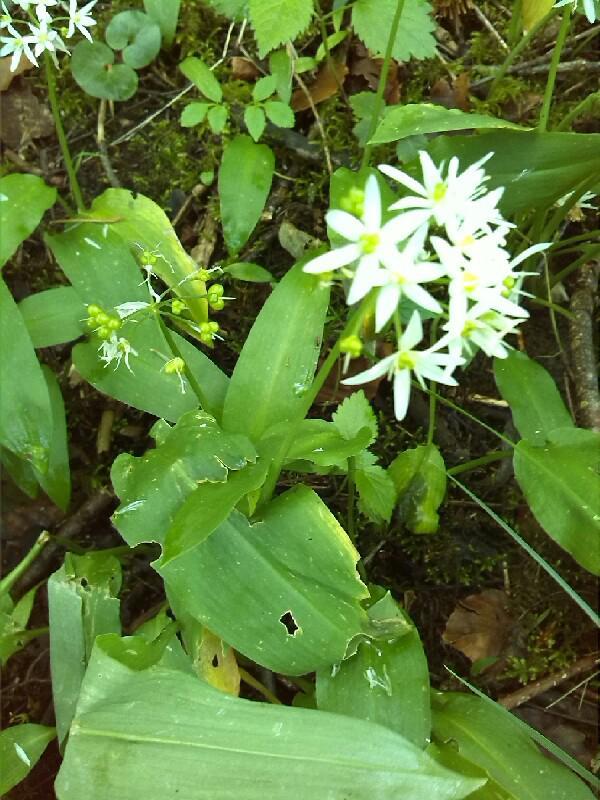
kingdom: Plantae
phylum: Tracheophyta
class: Liliopsida
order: Asparagales
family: Amaryllidaceae
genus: Allium
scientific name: Allium ursinum
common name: Ramsons
